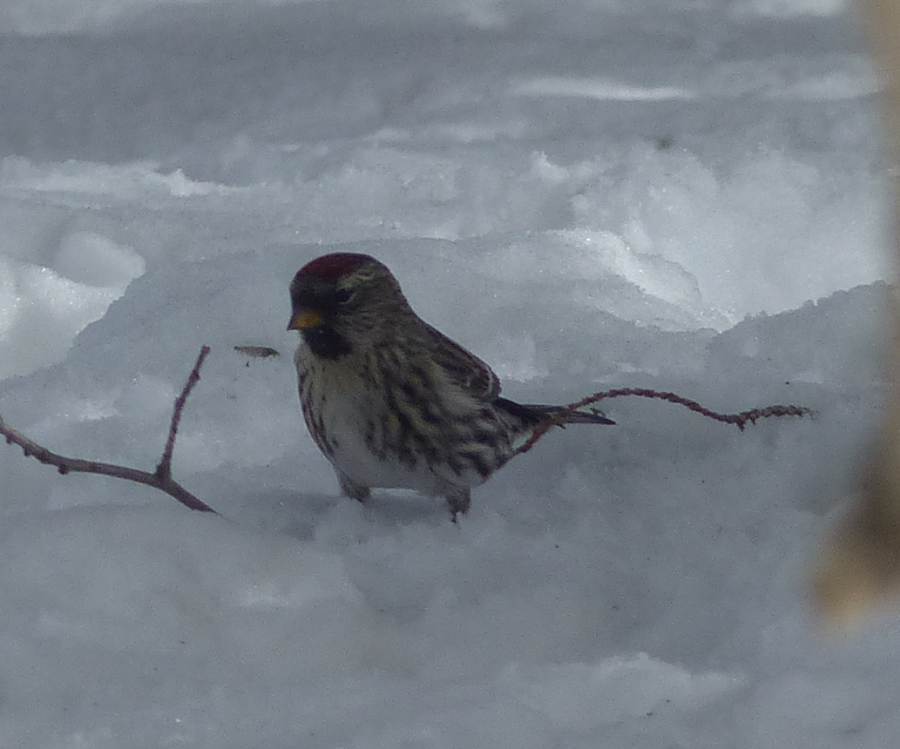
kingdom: Animalia
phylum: Chordata
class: Aves
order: Passeriformes
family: Fringillidae
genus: Acanthis
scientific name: Acanthis flammea
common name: Common redpoll
